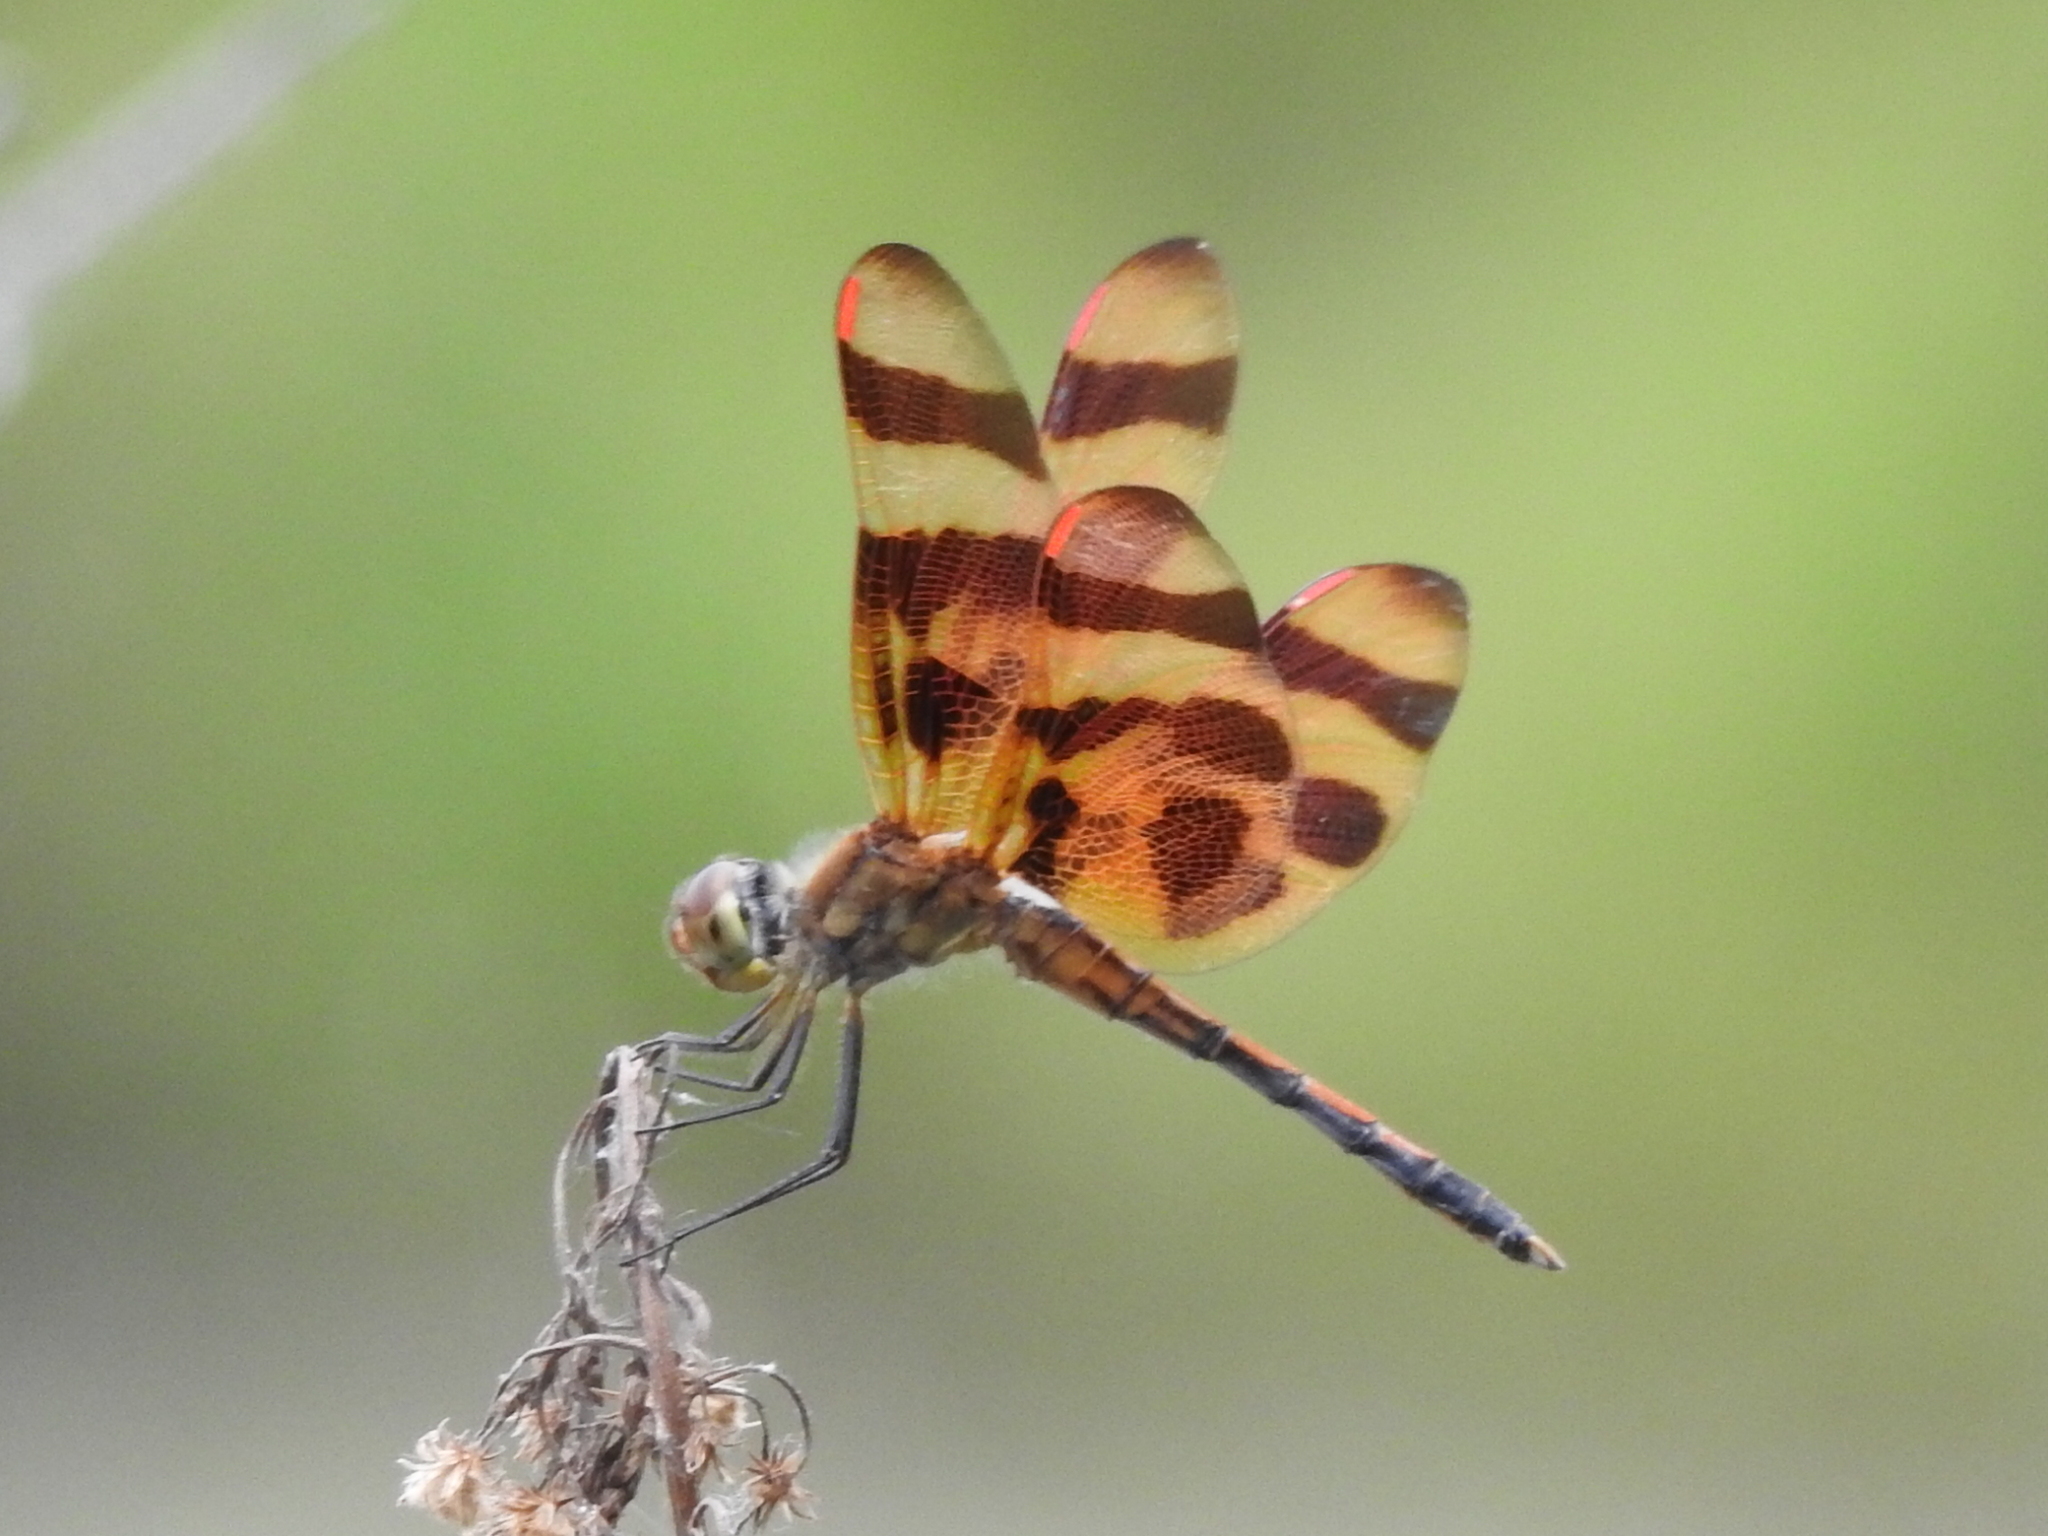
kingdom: Animalia
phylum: Arthropoda
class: Insecta
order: Odonata
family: Libellulidae
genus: Celithemis
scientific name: Celithemis eponina
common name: Halloween pennant
